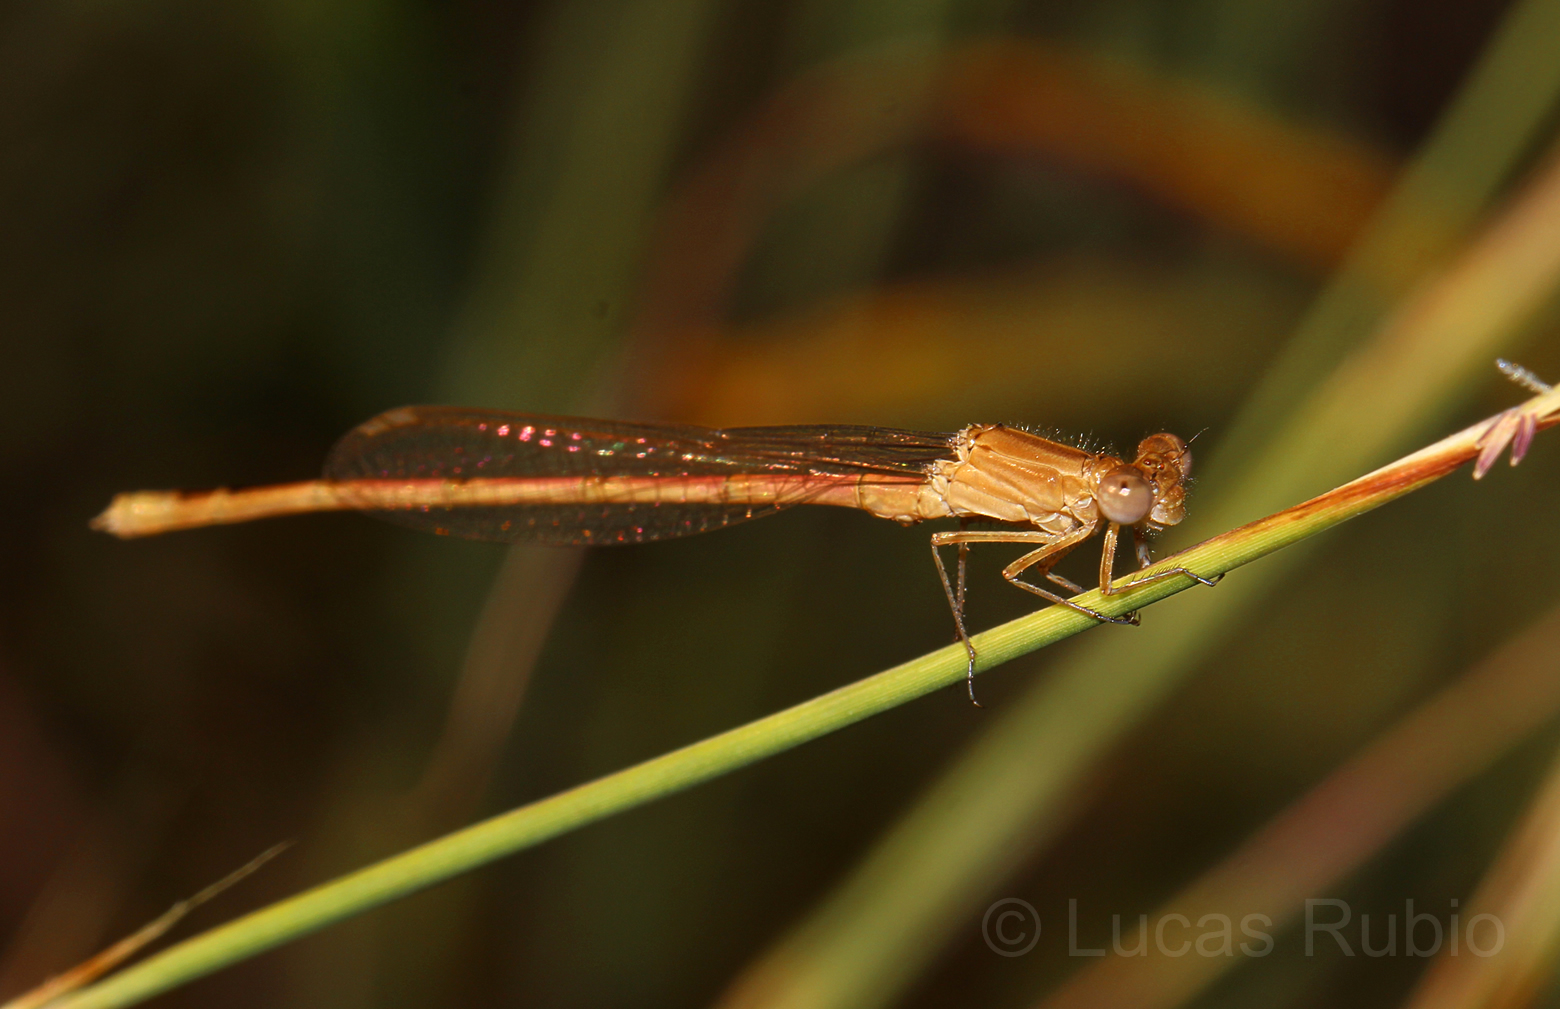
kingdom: Animalia
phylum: Arthropoda
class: Insecta
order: Odonata
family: Coenagrionidae
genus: Oxyagrion
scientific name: Oxyagrion rubidum
